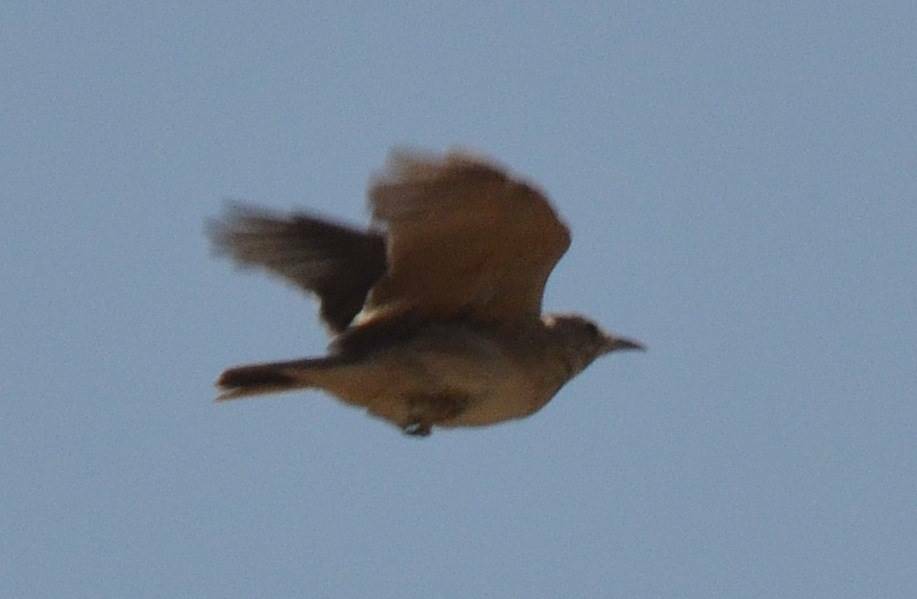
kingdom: Animalia
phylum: Chordata
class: Aves
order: Passeriformes
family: Alaudidae
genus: Galerida
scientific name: Galerida cristata
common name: Crested lark
